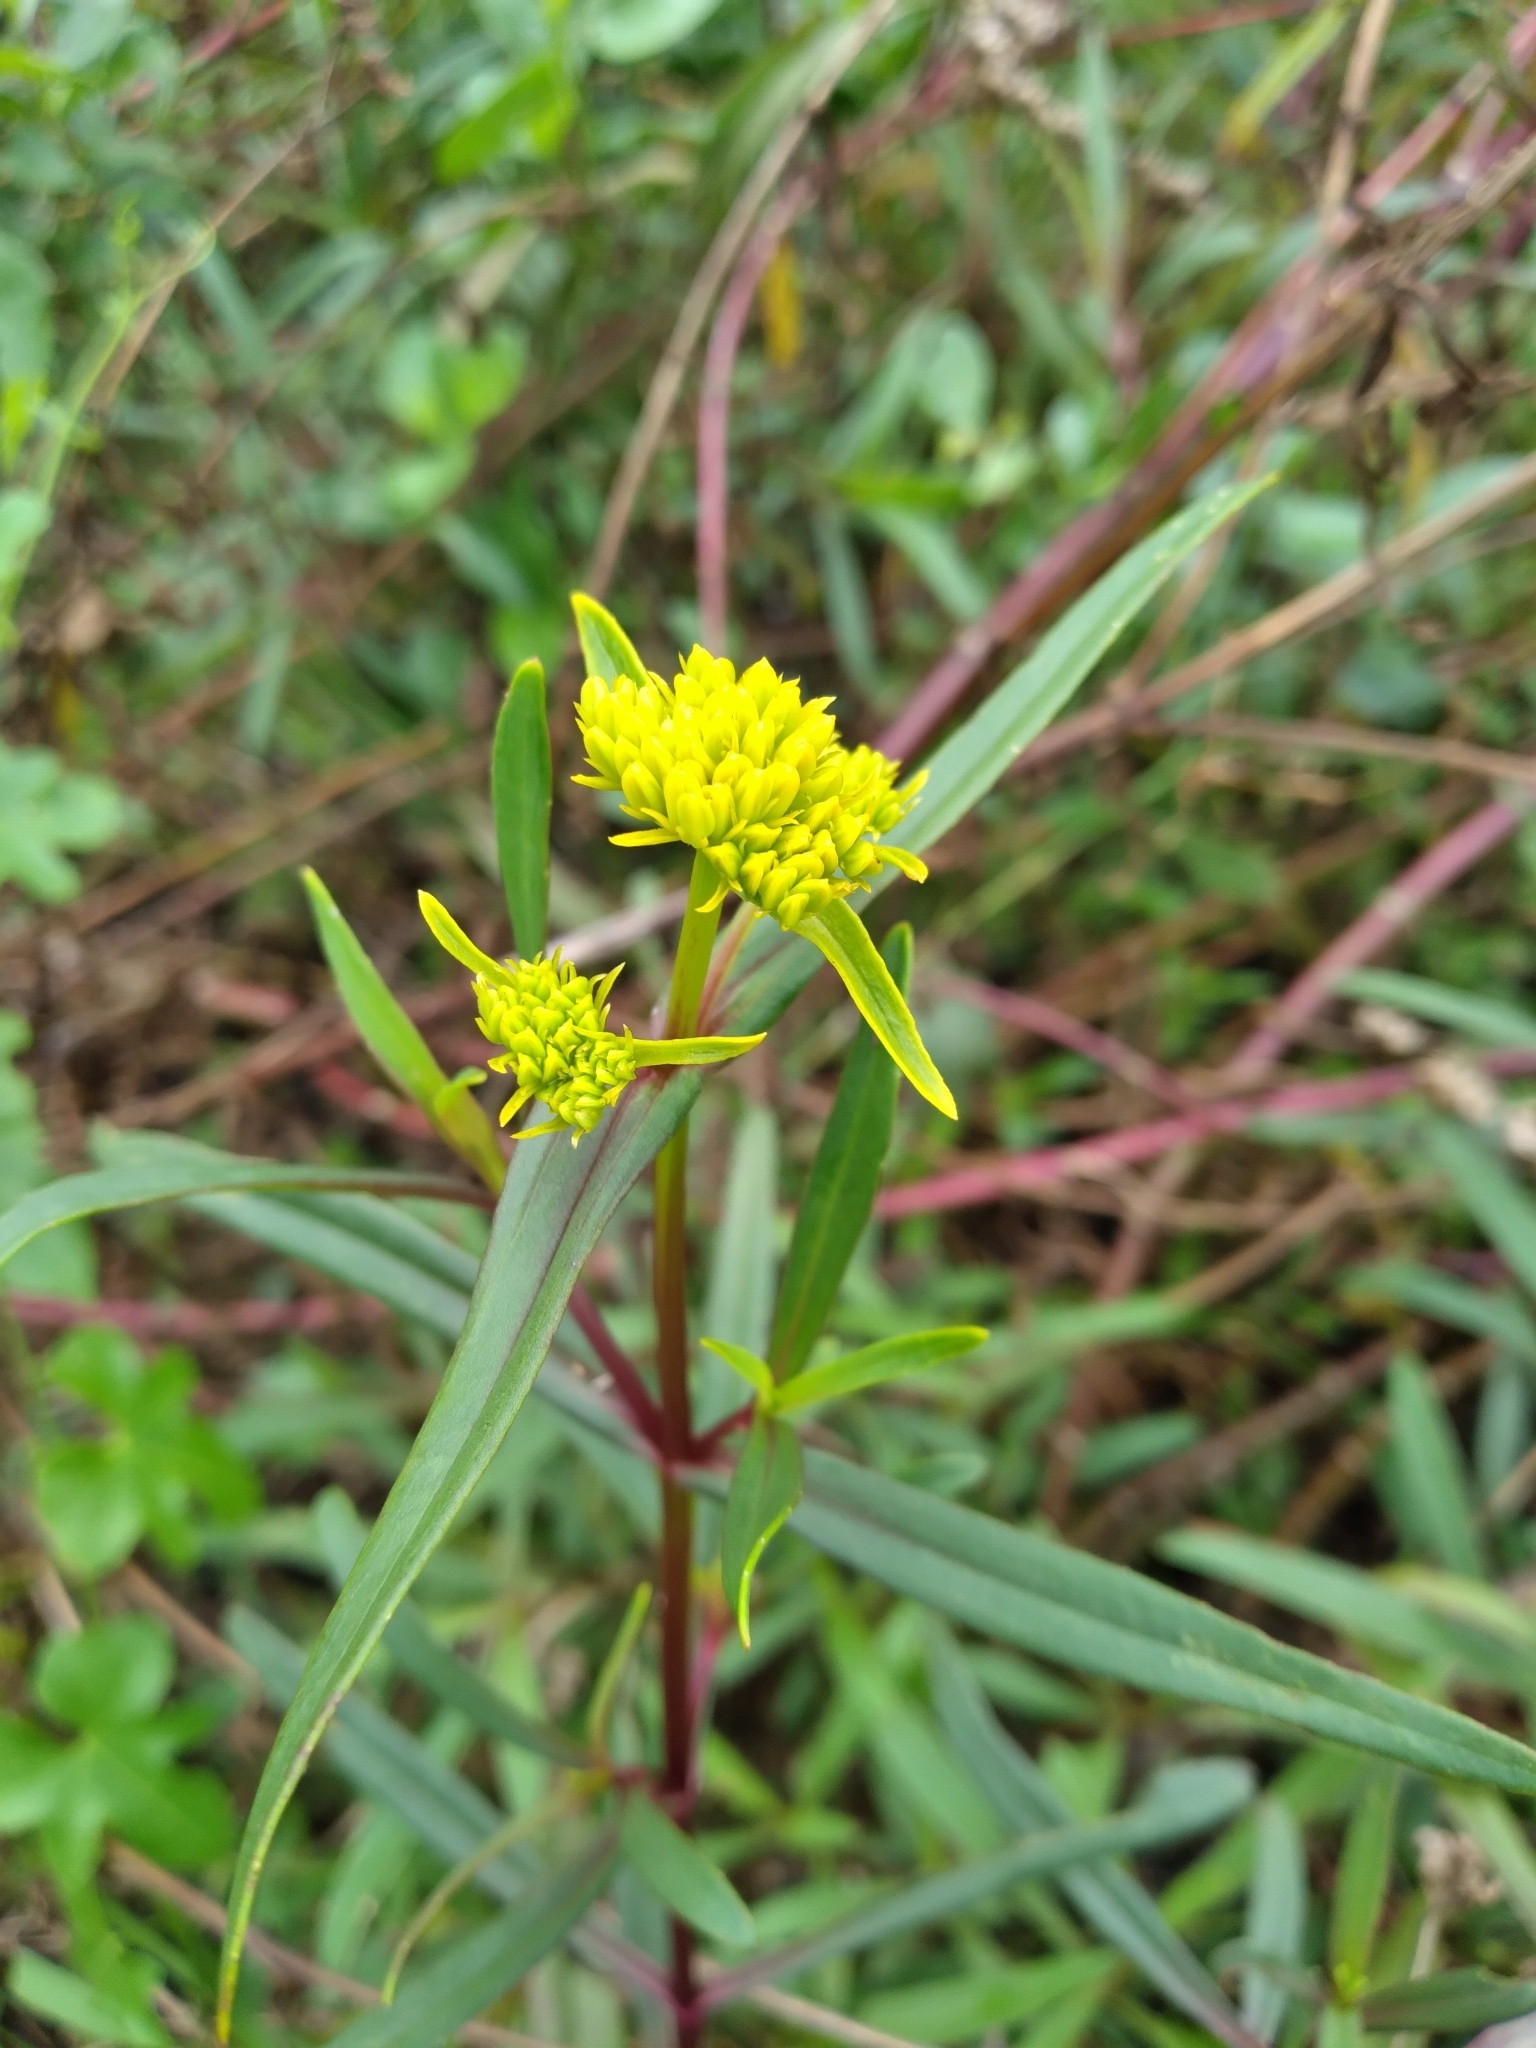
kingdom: Plantae
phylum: Tracheophyta
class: Magnoliopsida
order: Asterales
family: Asteraceae
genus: Flaveria
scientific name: Flaveria floridana
